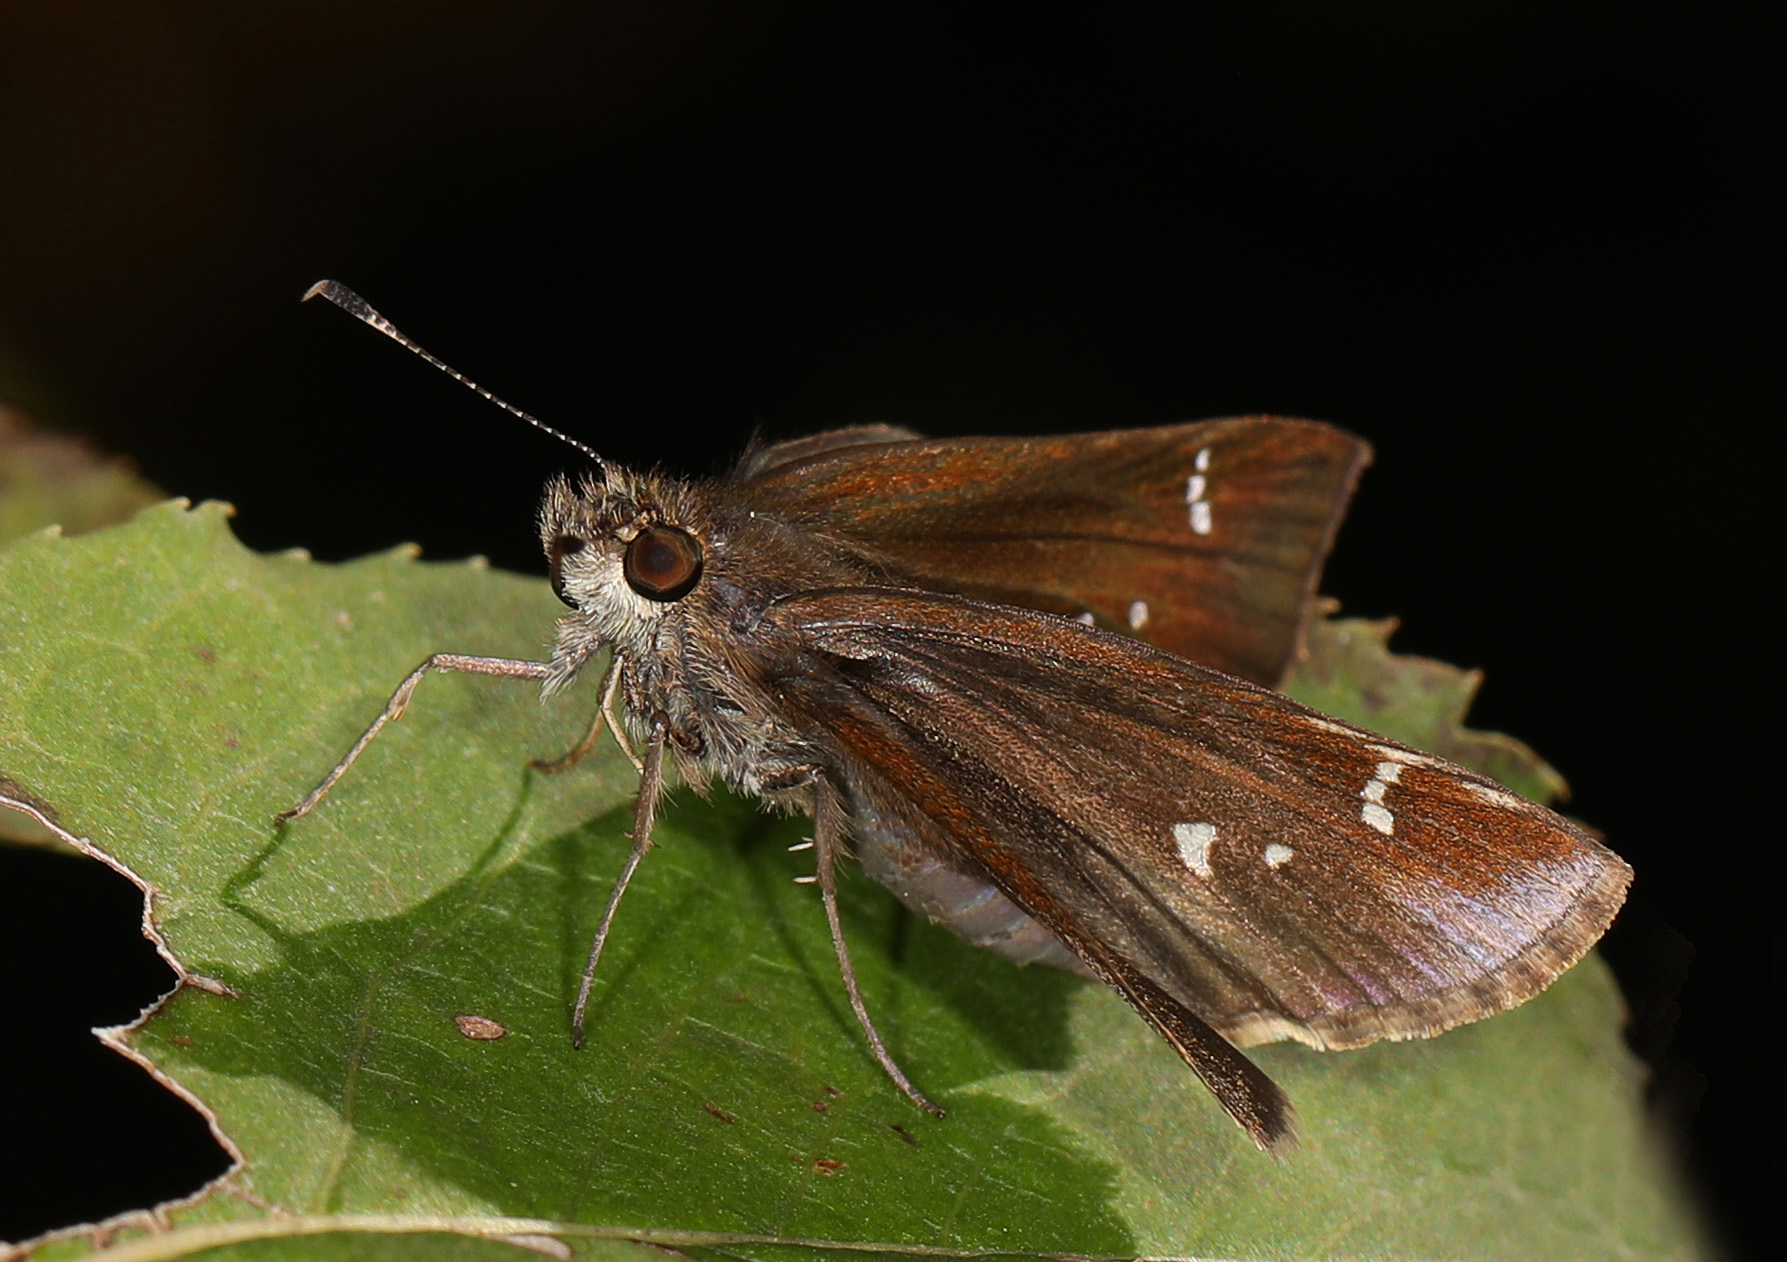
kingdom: Animalia
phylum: Arthropoda
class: Insecta
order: Lepidoptera
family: Hesperiidae
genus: Lerema
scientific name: Lerema accius
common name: Clouded skipper
